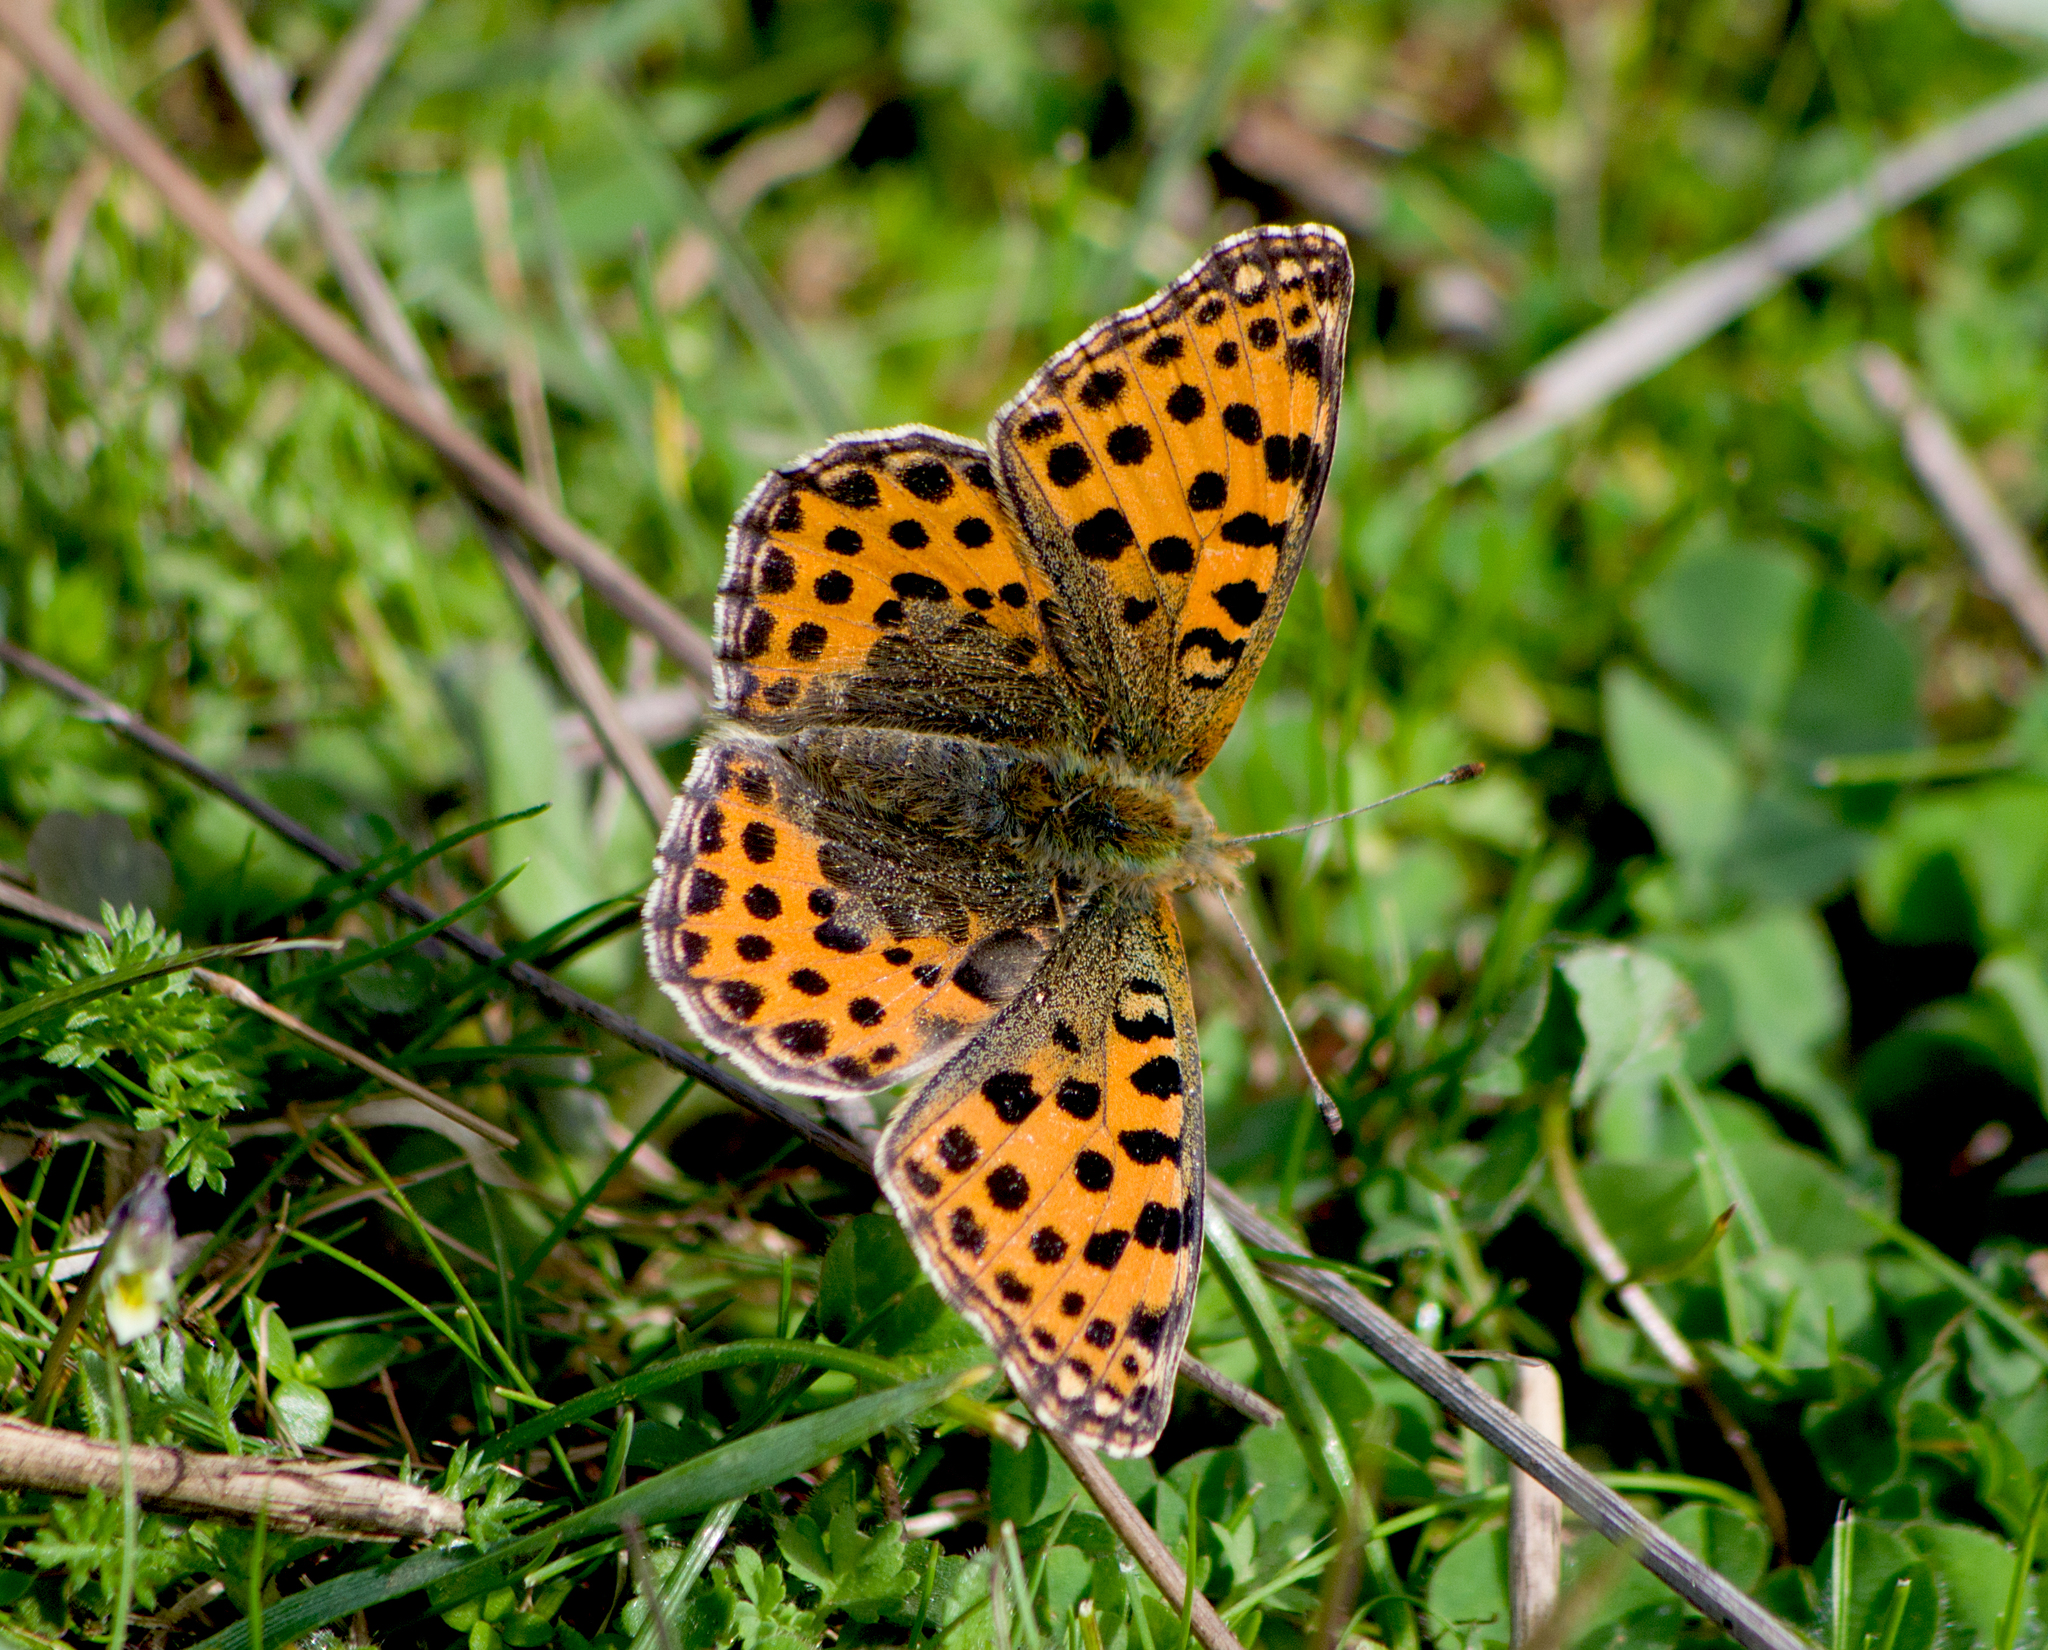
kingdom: Animalia
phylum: Arthropoda
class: Insecta
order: Lepidoptera
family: Nymphalidae
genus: Issoria
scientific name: Issoria lathonia
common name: Queen of spain fritillary
